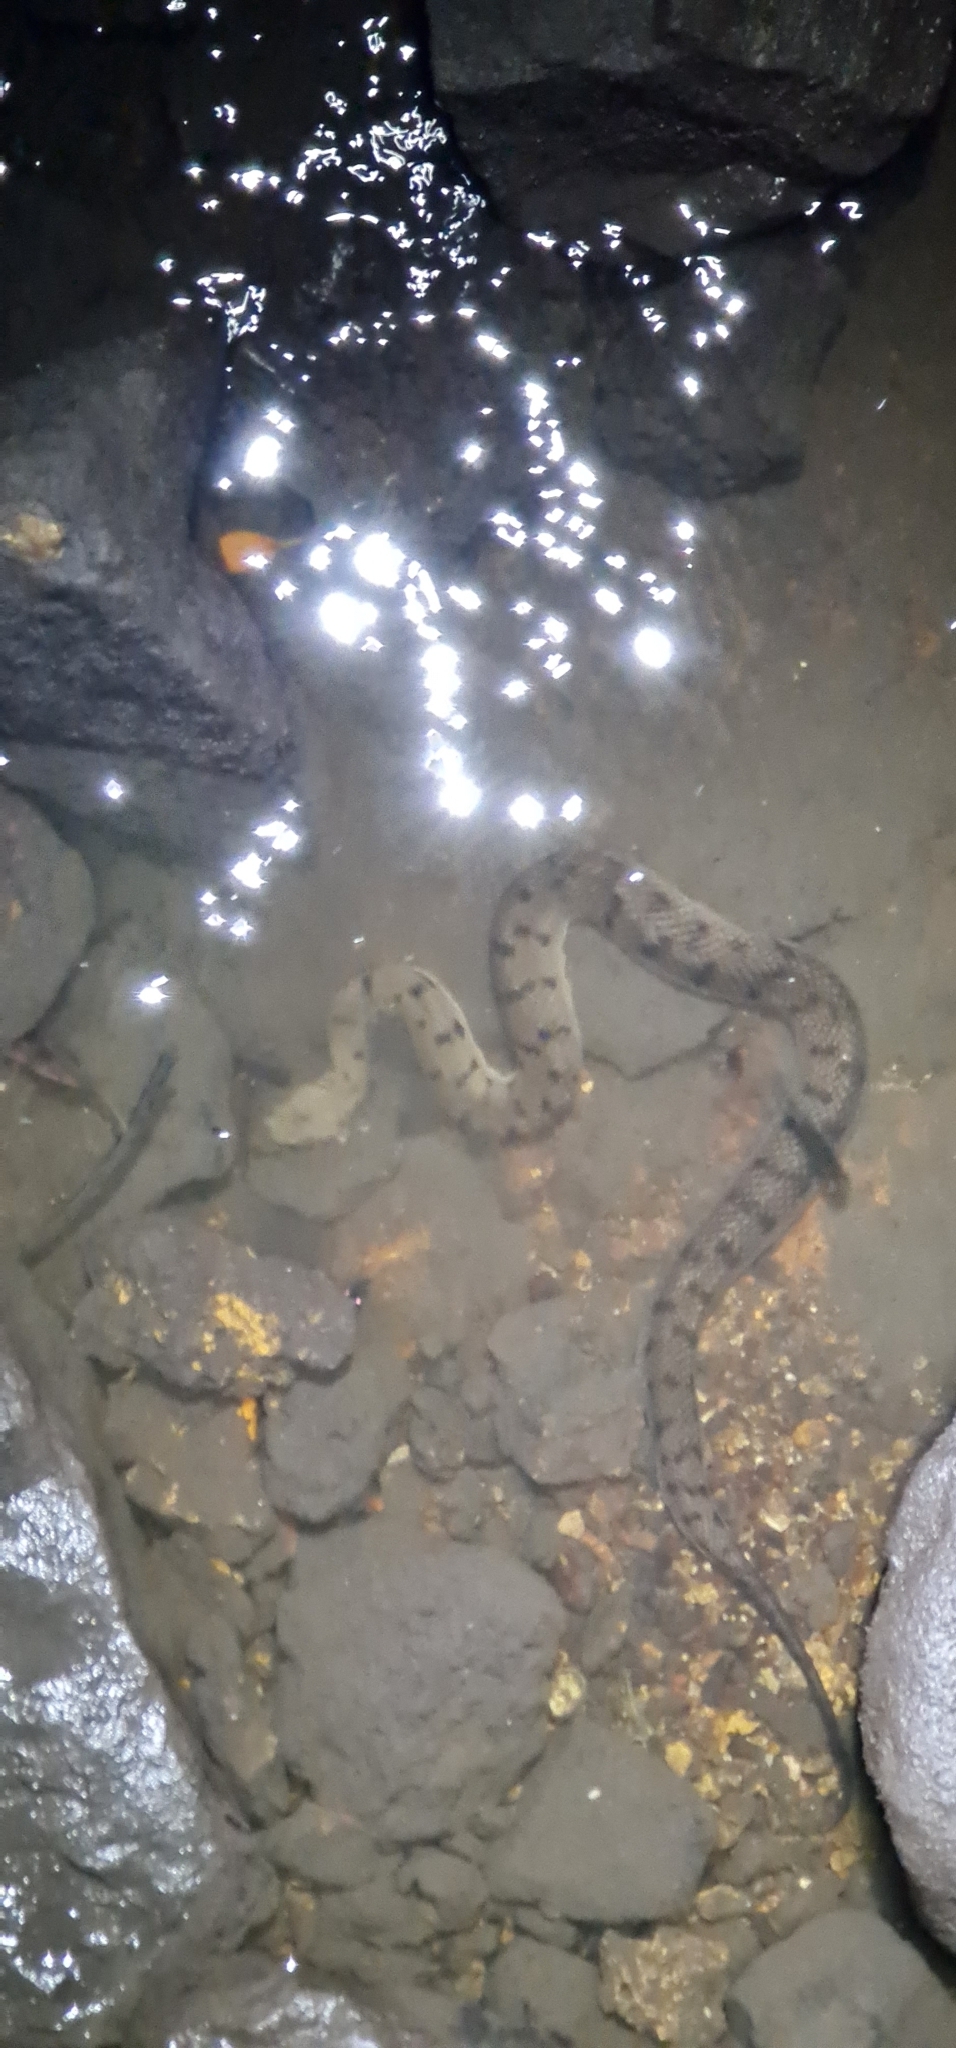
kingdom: Animalia
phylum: Chordata
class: Squamata
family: Homalopsidae
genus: Cerberus
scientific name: Cerberus australis
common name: Australian bockadam
